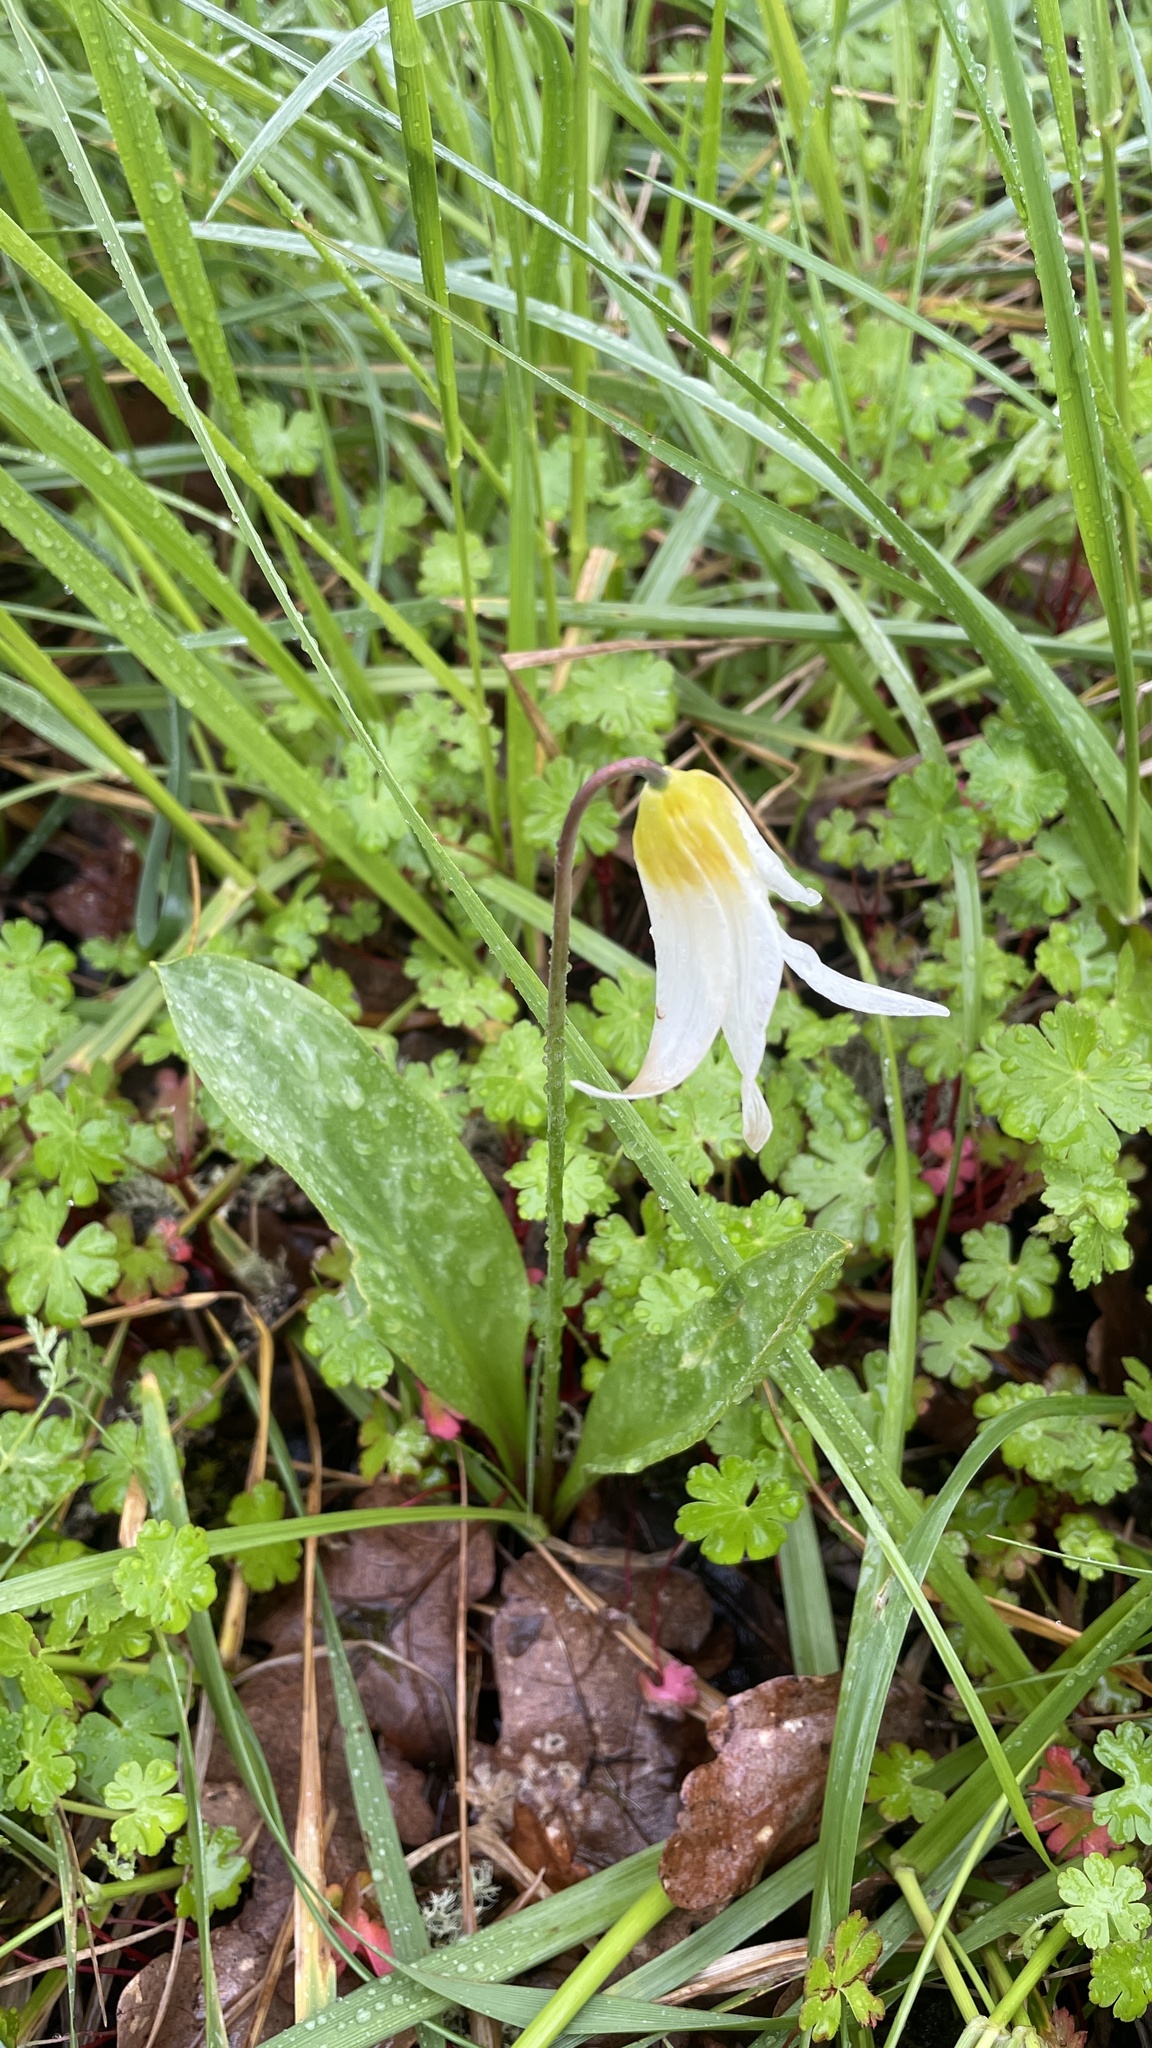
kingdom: Plantae
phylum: Tracheophyta
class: Liliopsida
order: Liliales
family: Liliaceae
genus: Erythronium
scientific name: Erythronium oregonum
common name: Giant adder's-tongue
